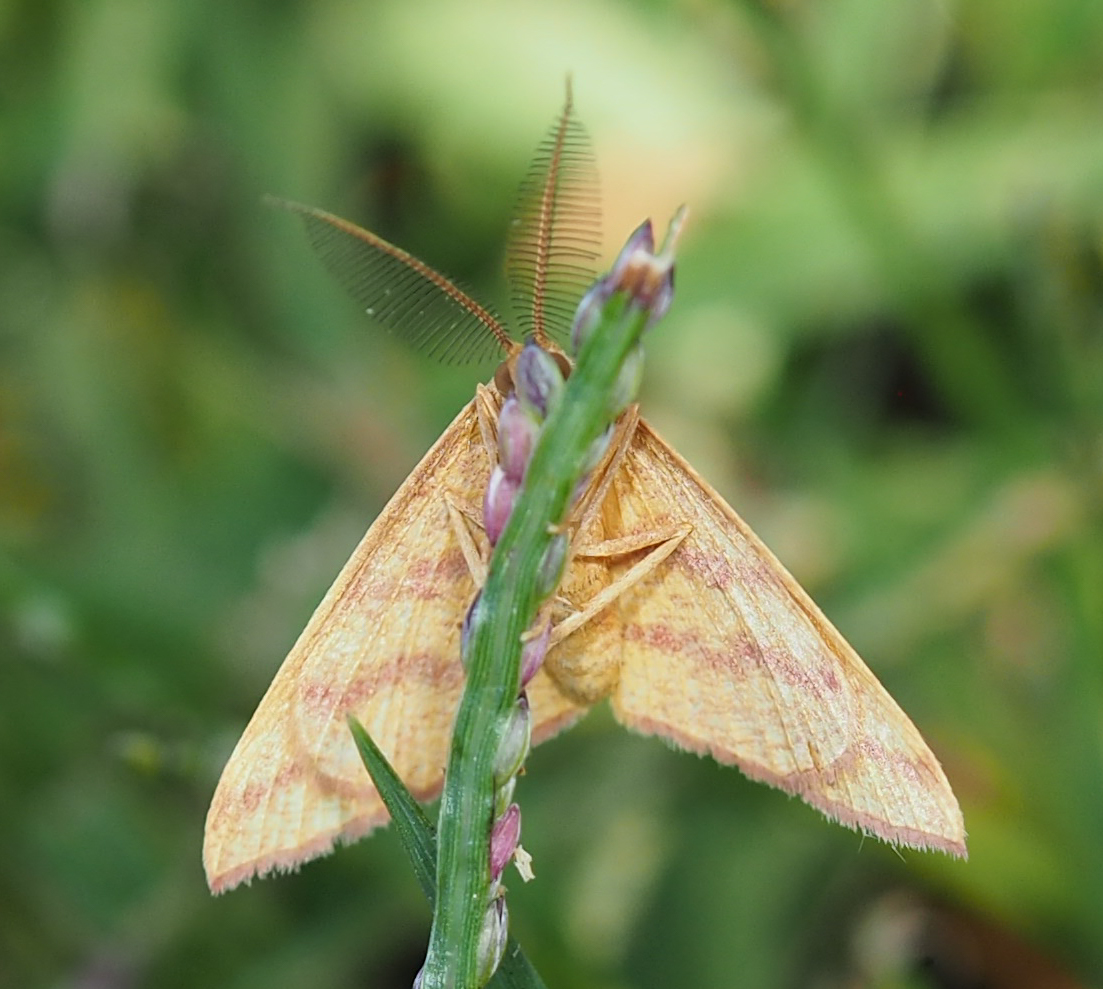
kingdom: Animalia
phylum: Arthropoda
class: Insecta
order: Lepidoptera
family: Geometridae
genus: Haematopis
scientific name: Haematopis grataria
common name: Chickweed geometer
